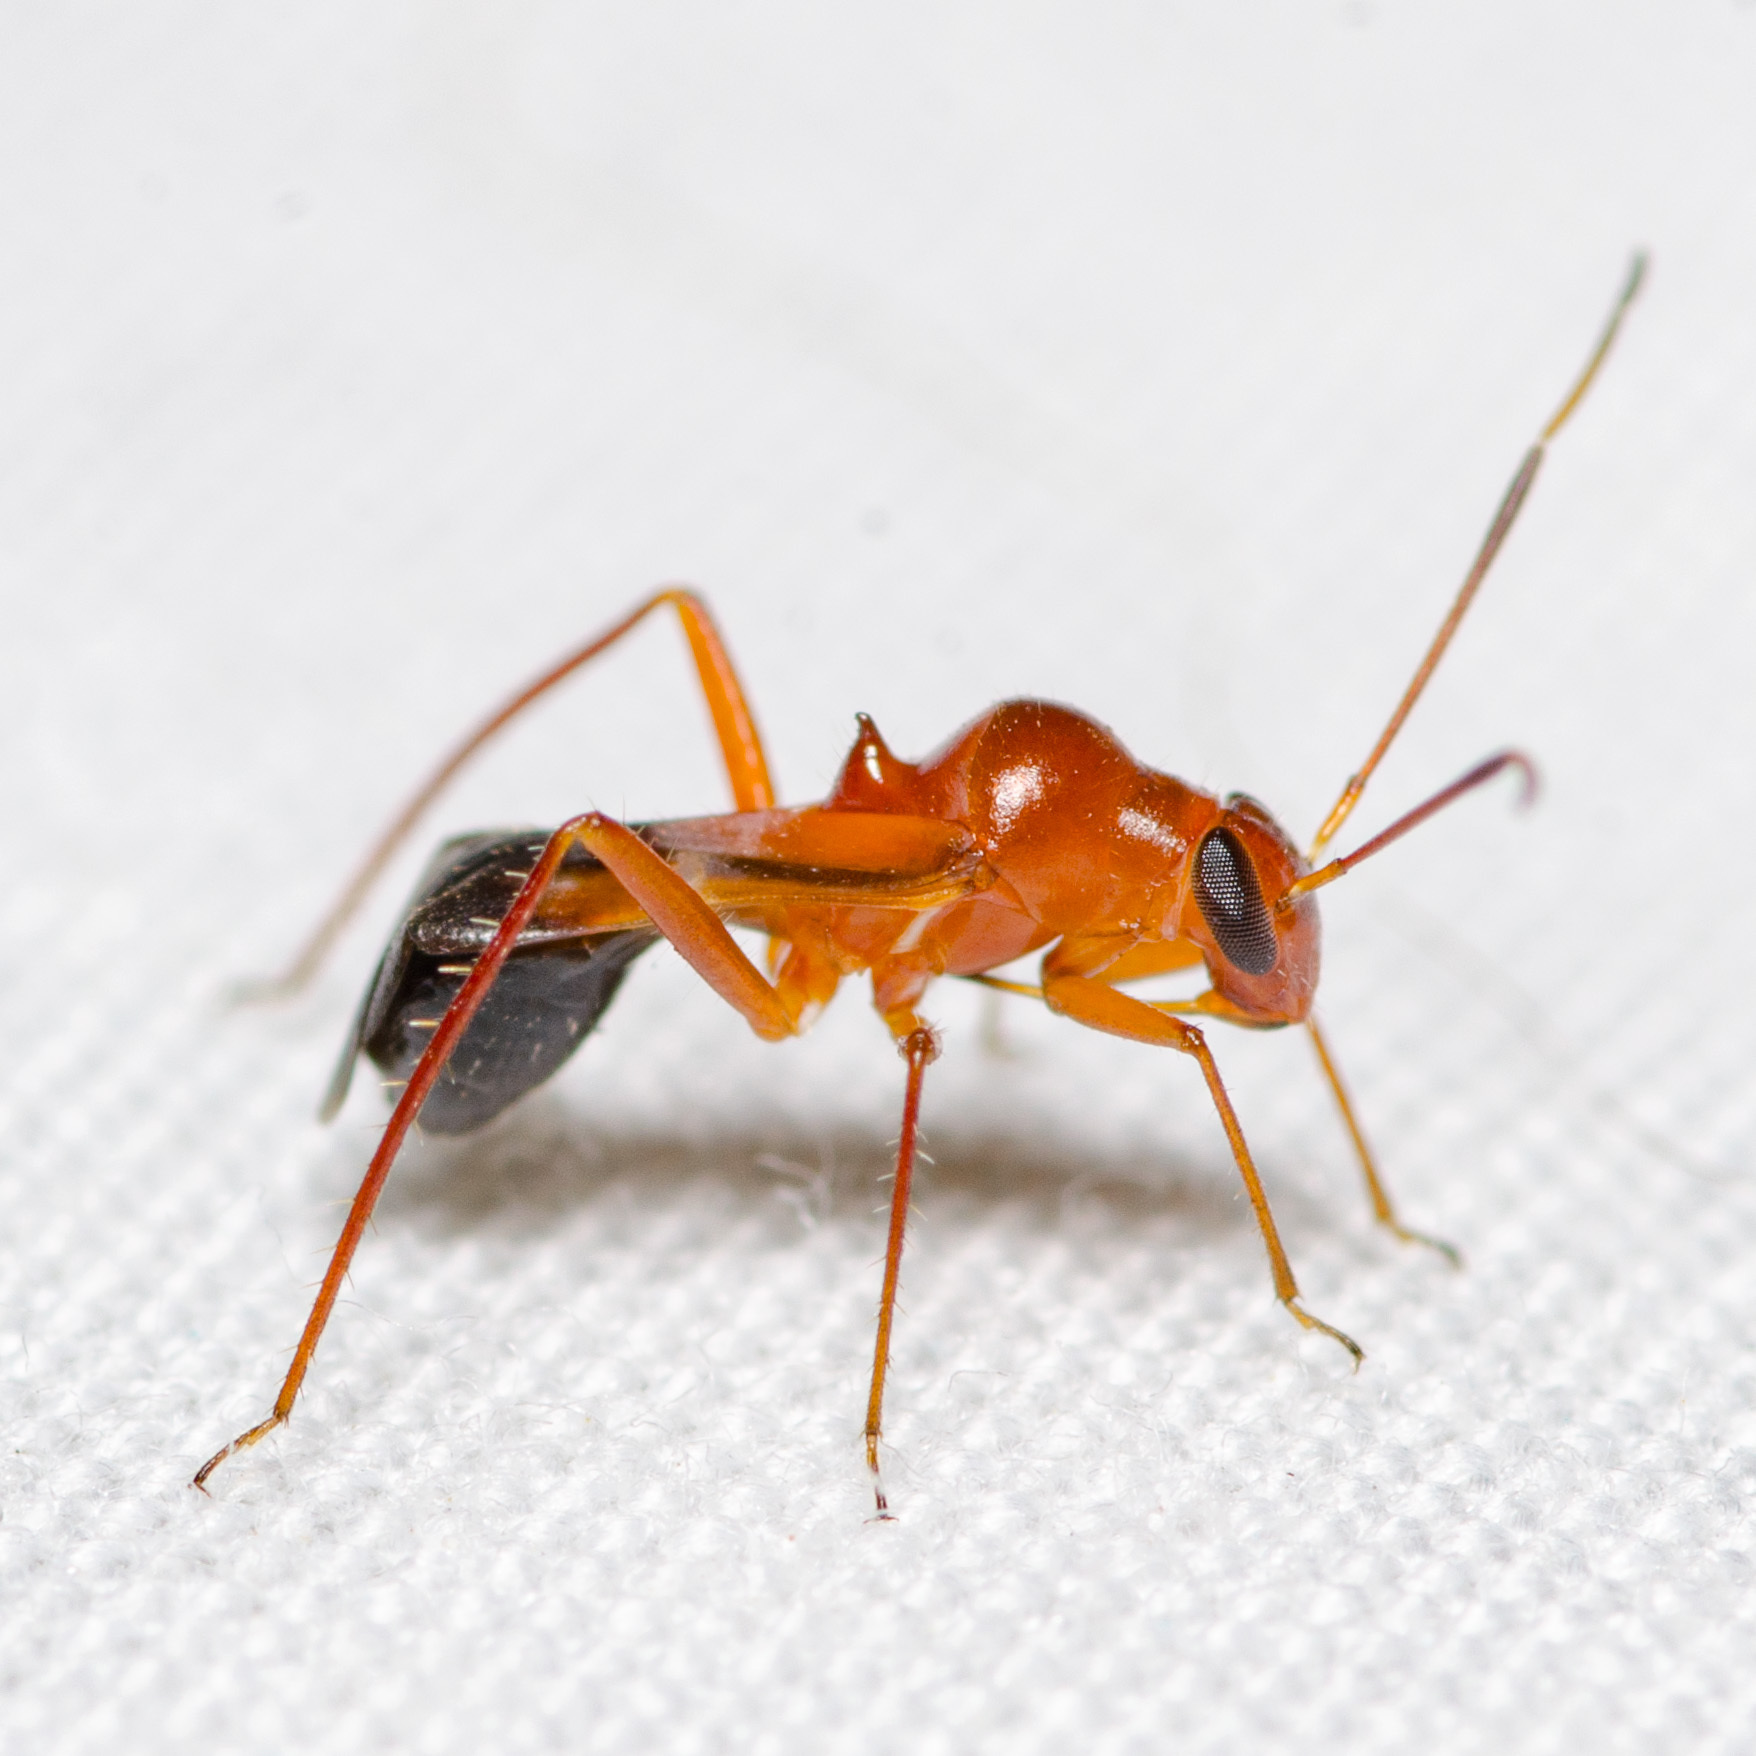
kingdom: Animalia
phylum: Arthropoda
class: Insecta
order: Hemiptera
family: Miridae
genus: Barberiella
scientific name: Barberiella formicoides
